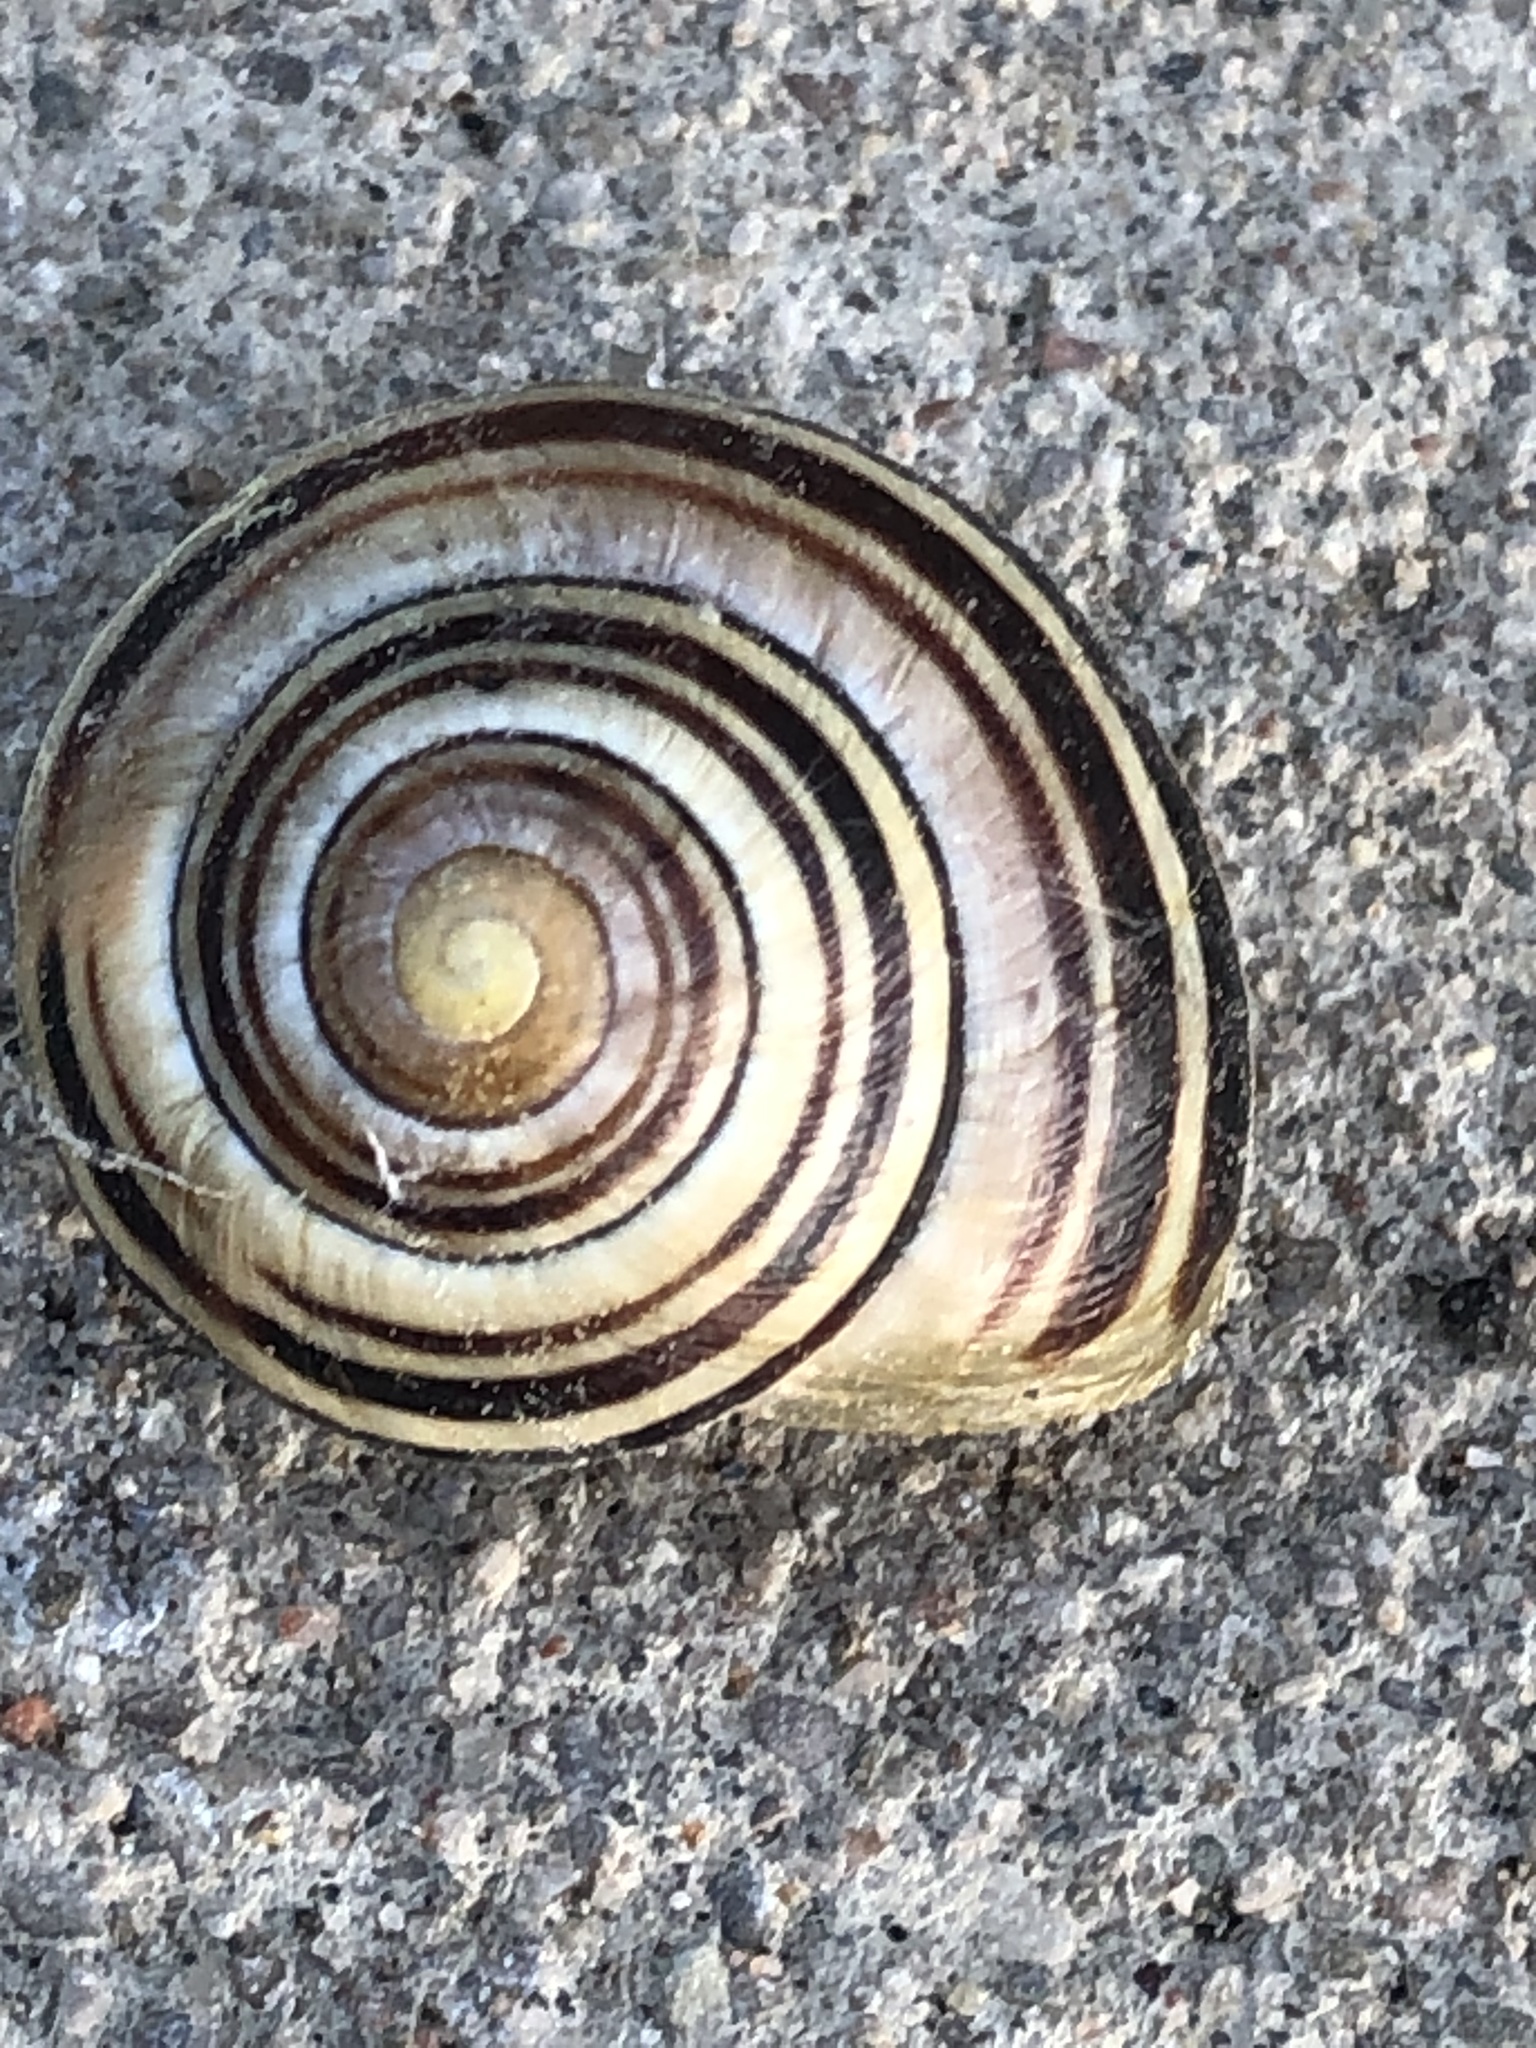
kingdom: Animalia
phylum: Mollusca
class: Gastropoda
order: Stylommatophora
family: Helicidae
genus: Cepaea
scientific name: Cepaea
